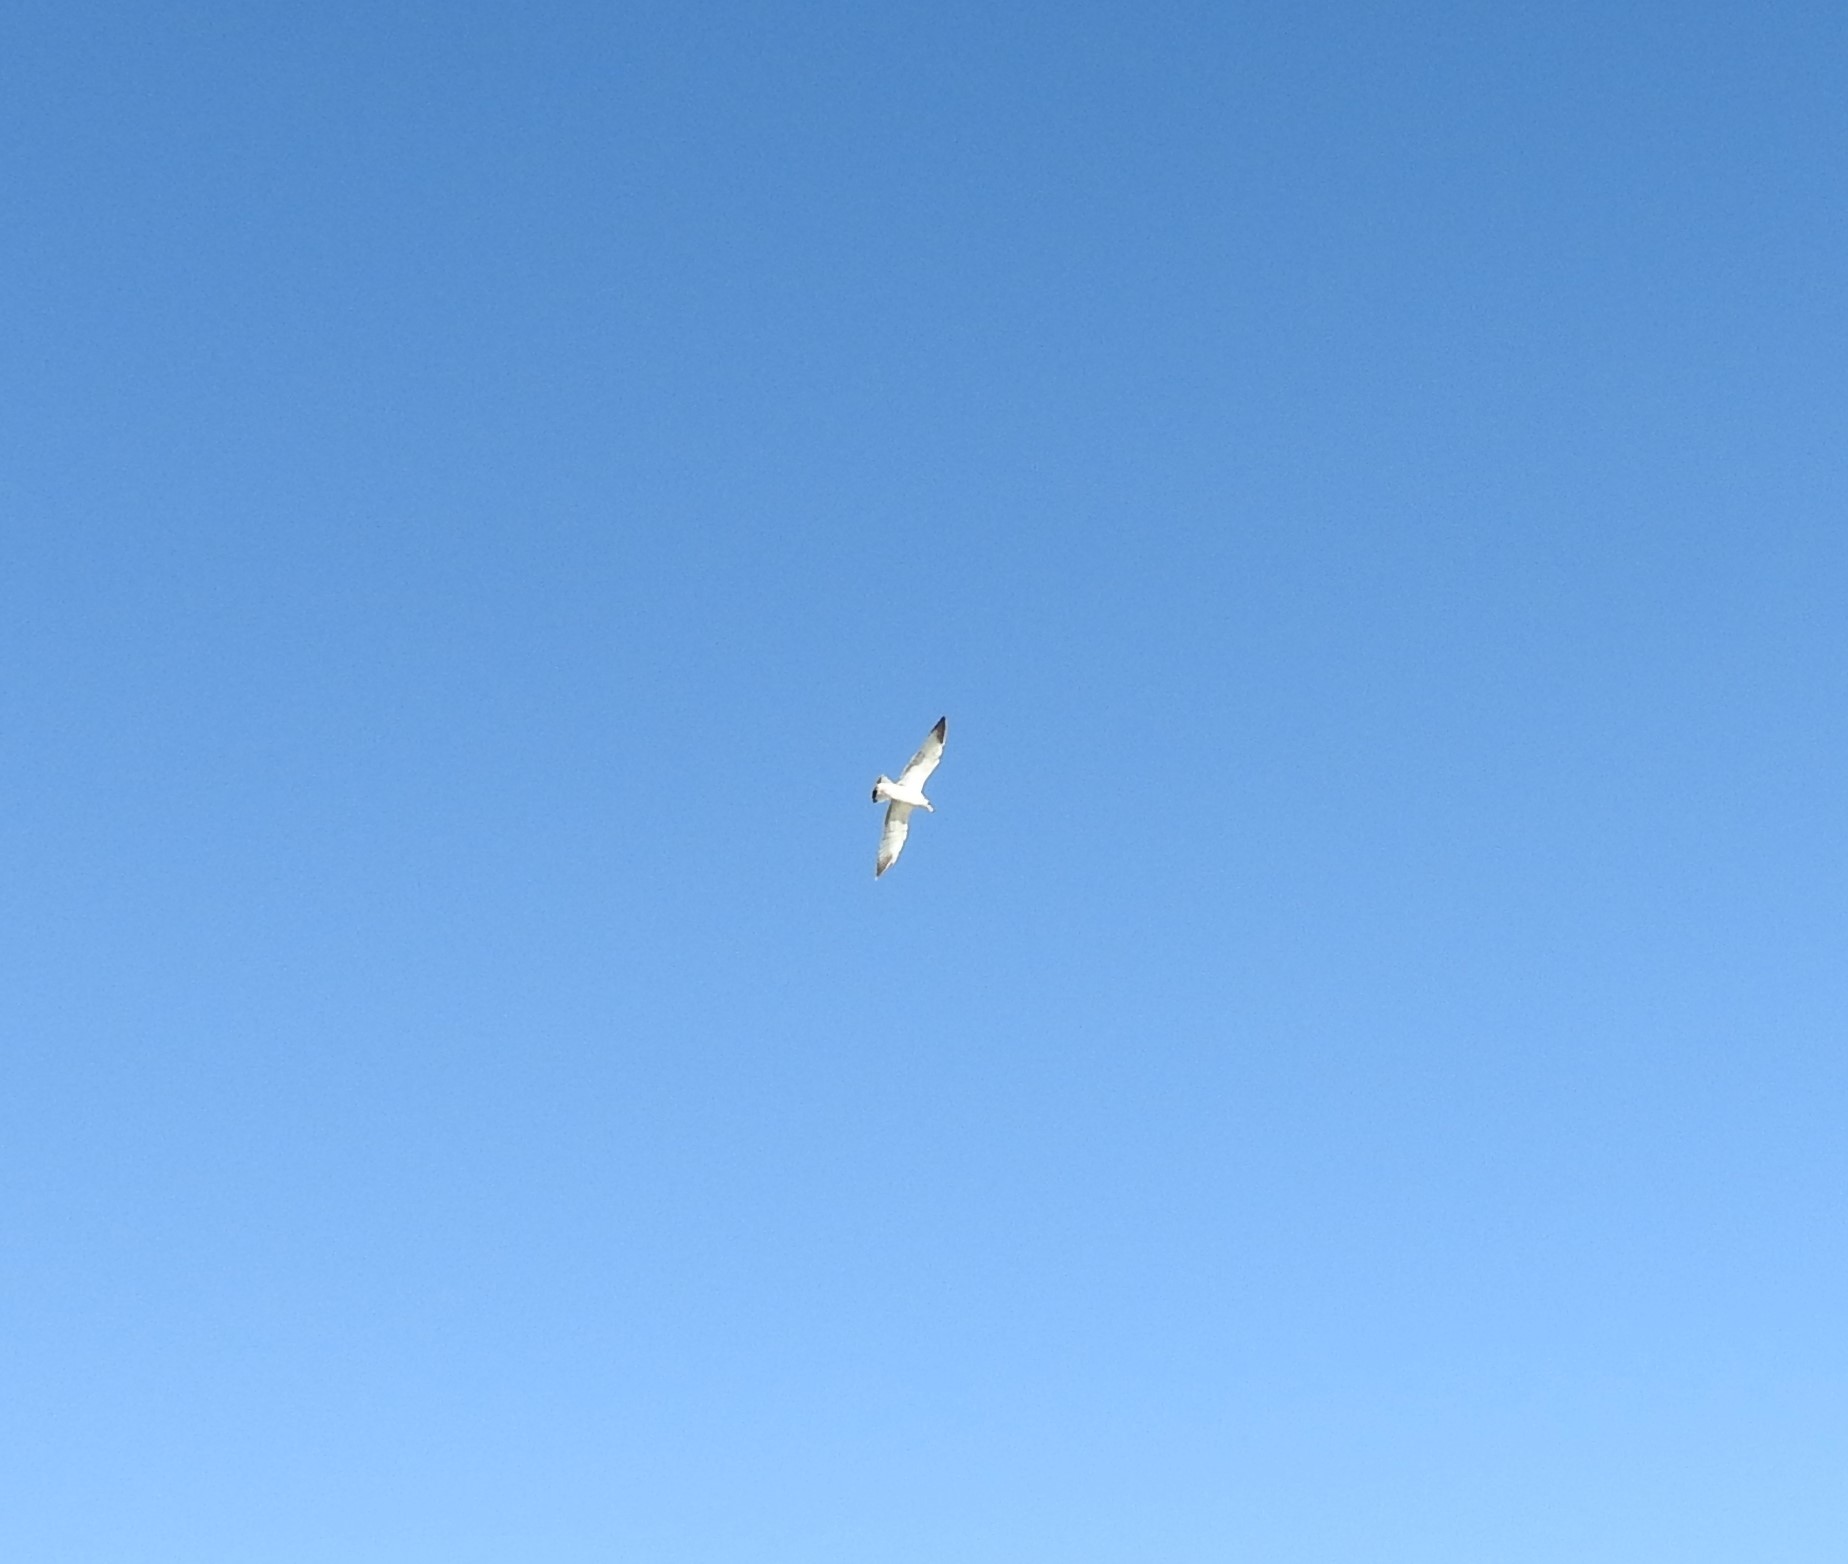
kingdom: Animalia
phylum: Chordata
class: Aves
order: Charadriiformes
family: Laridae
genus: Larus
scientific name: Larus delawarensis
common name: Ring-billed gull
